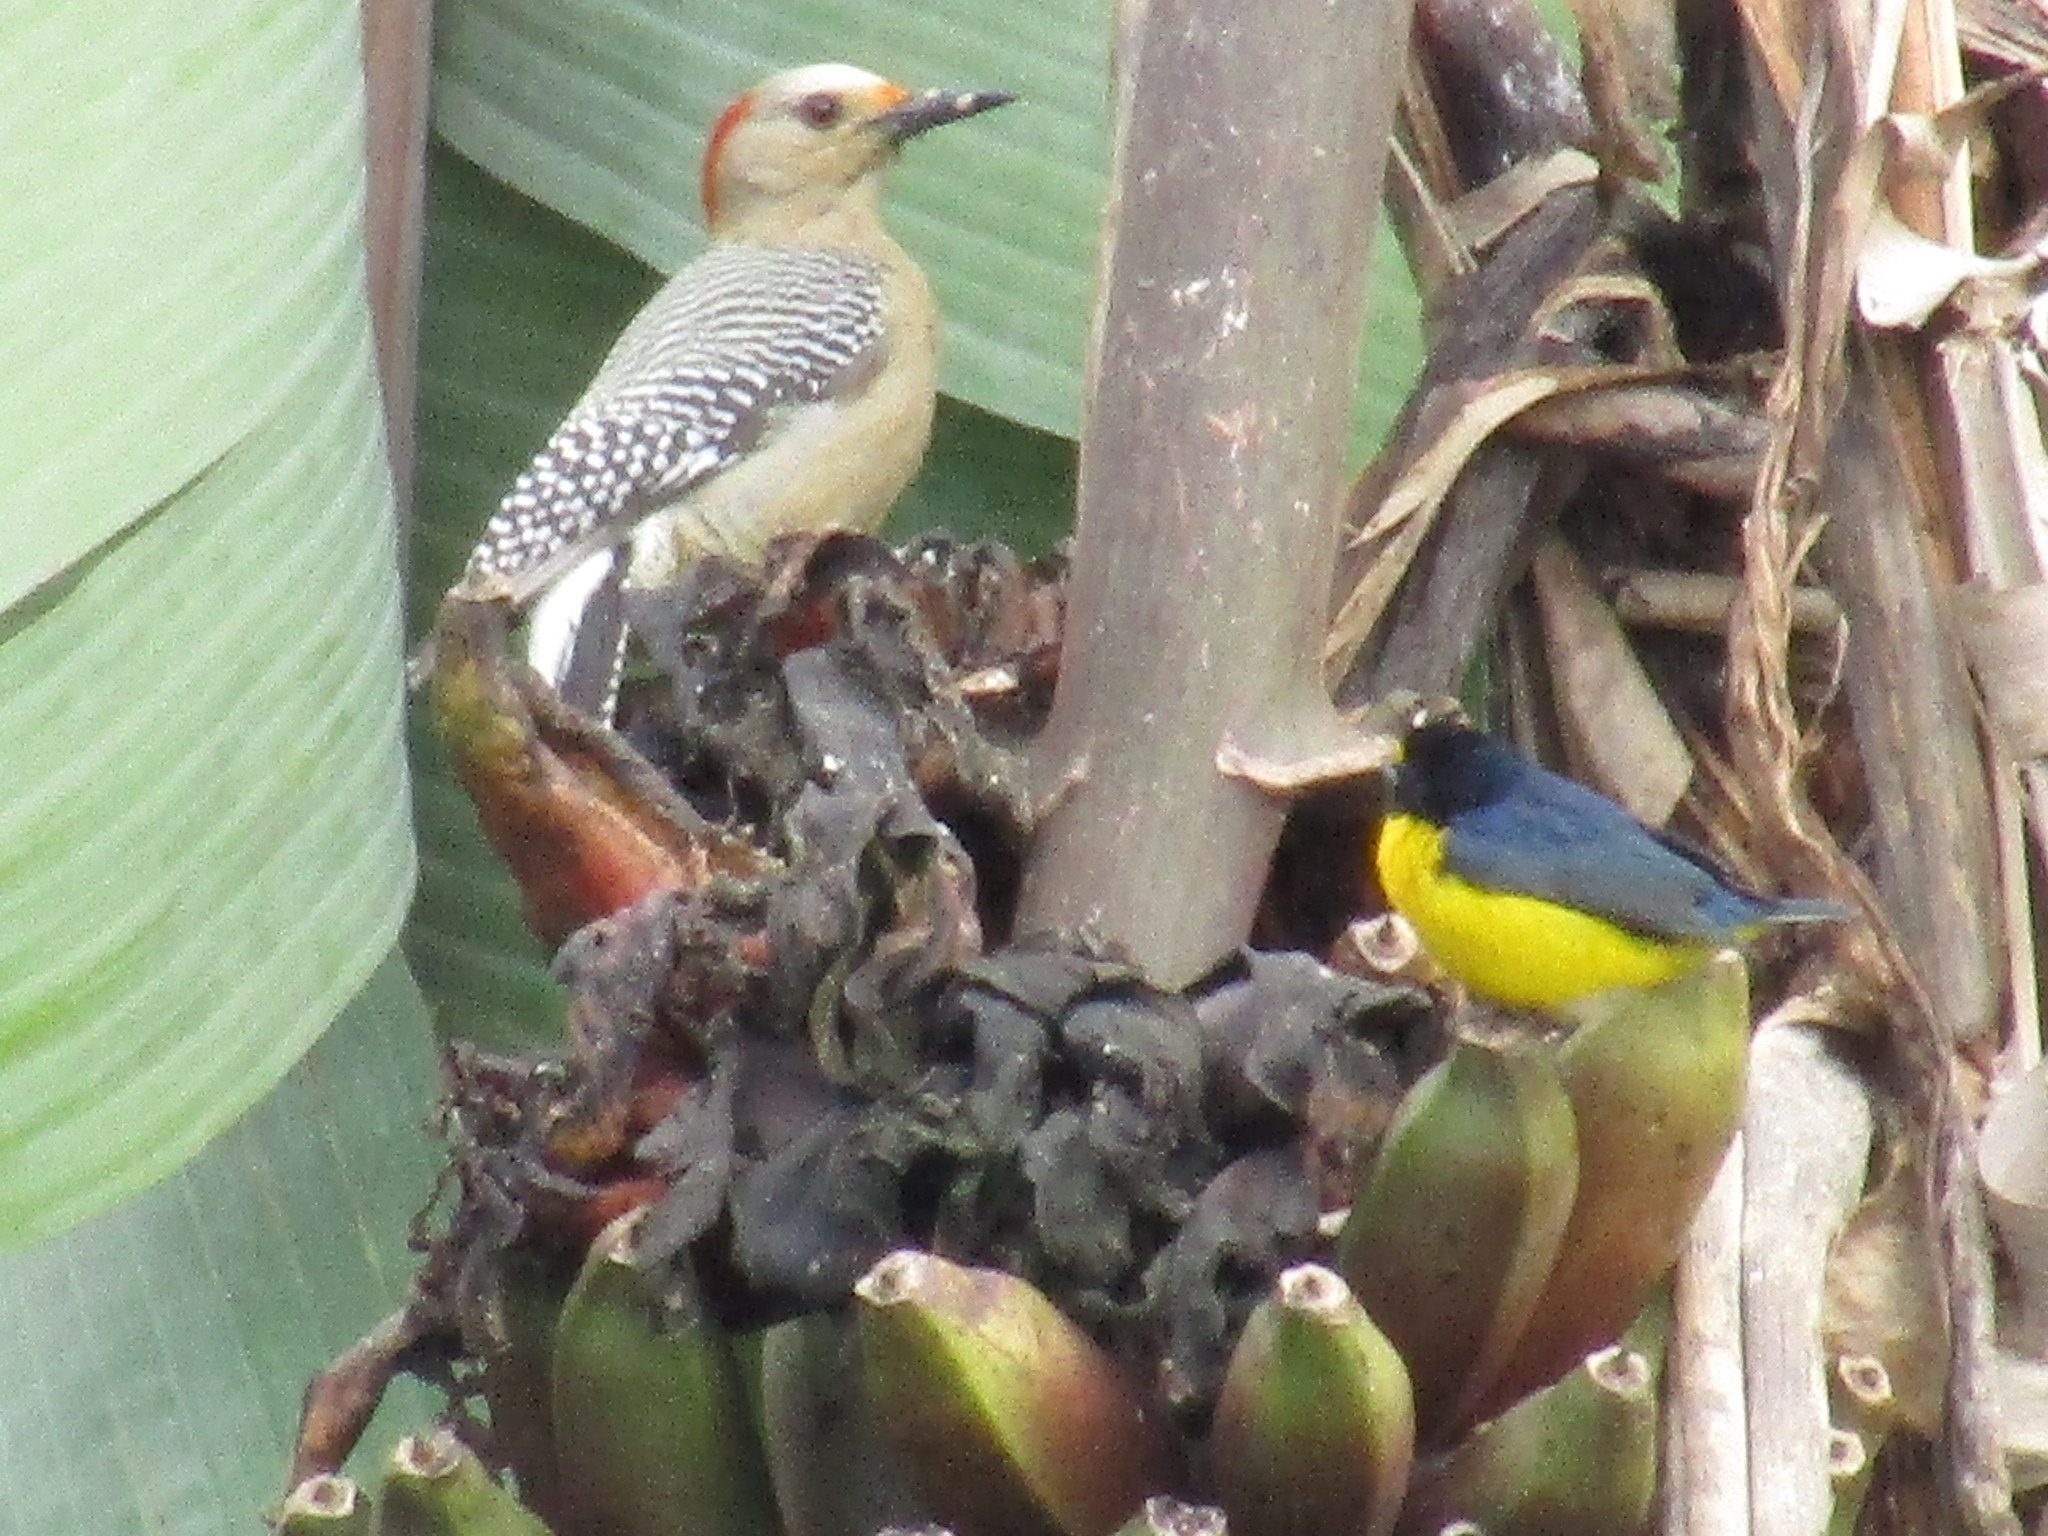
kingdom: Animalia
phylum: Chordata
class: Aves
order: Passeriformes
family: Fringillidae
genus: Euphonia
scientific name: Euphonia hirundinacea
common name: Yellow-throated euphonia
